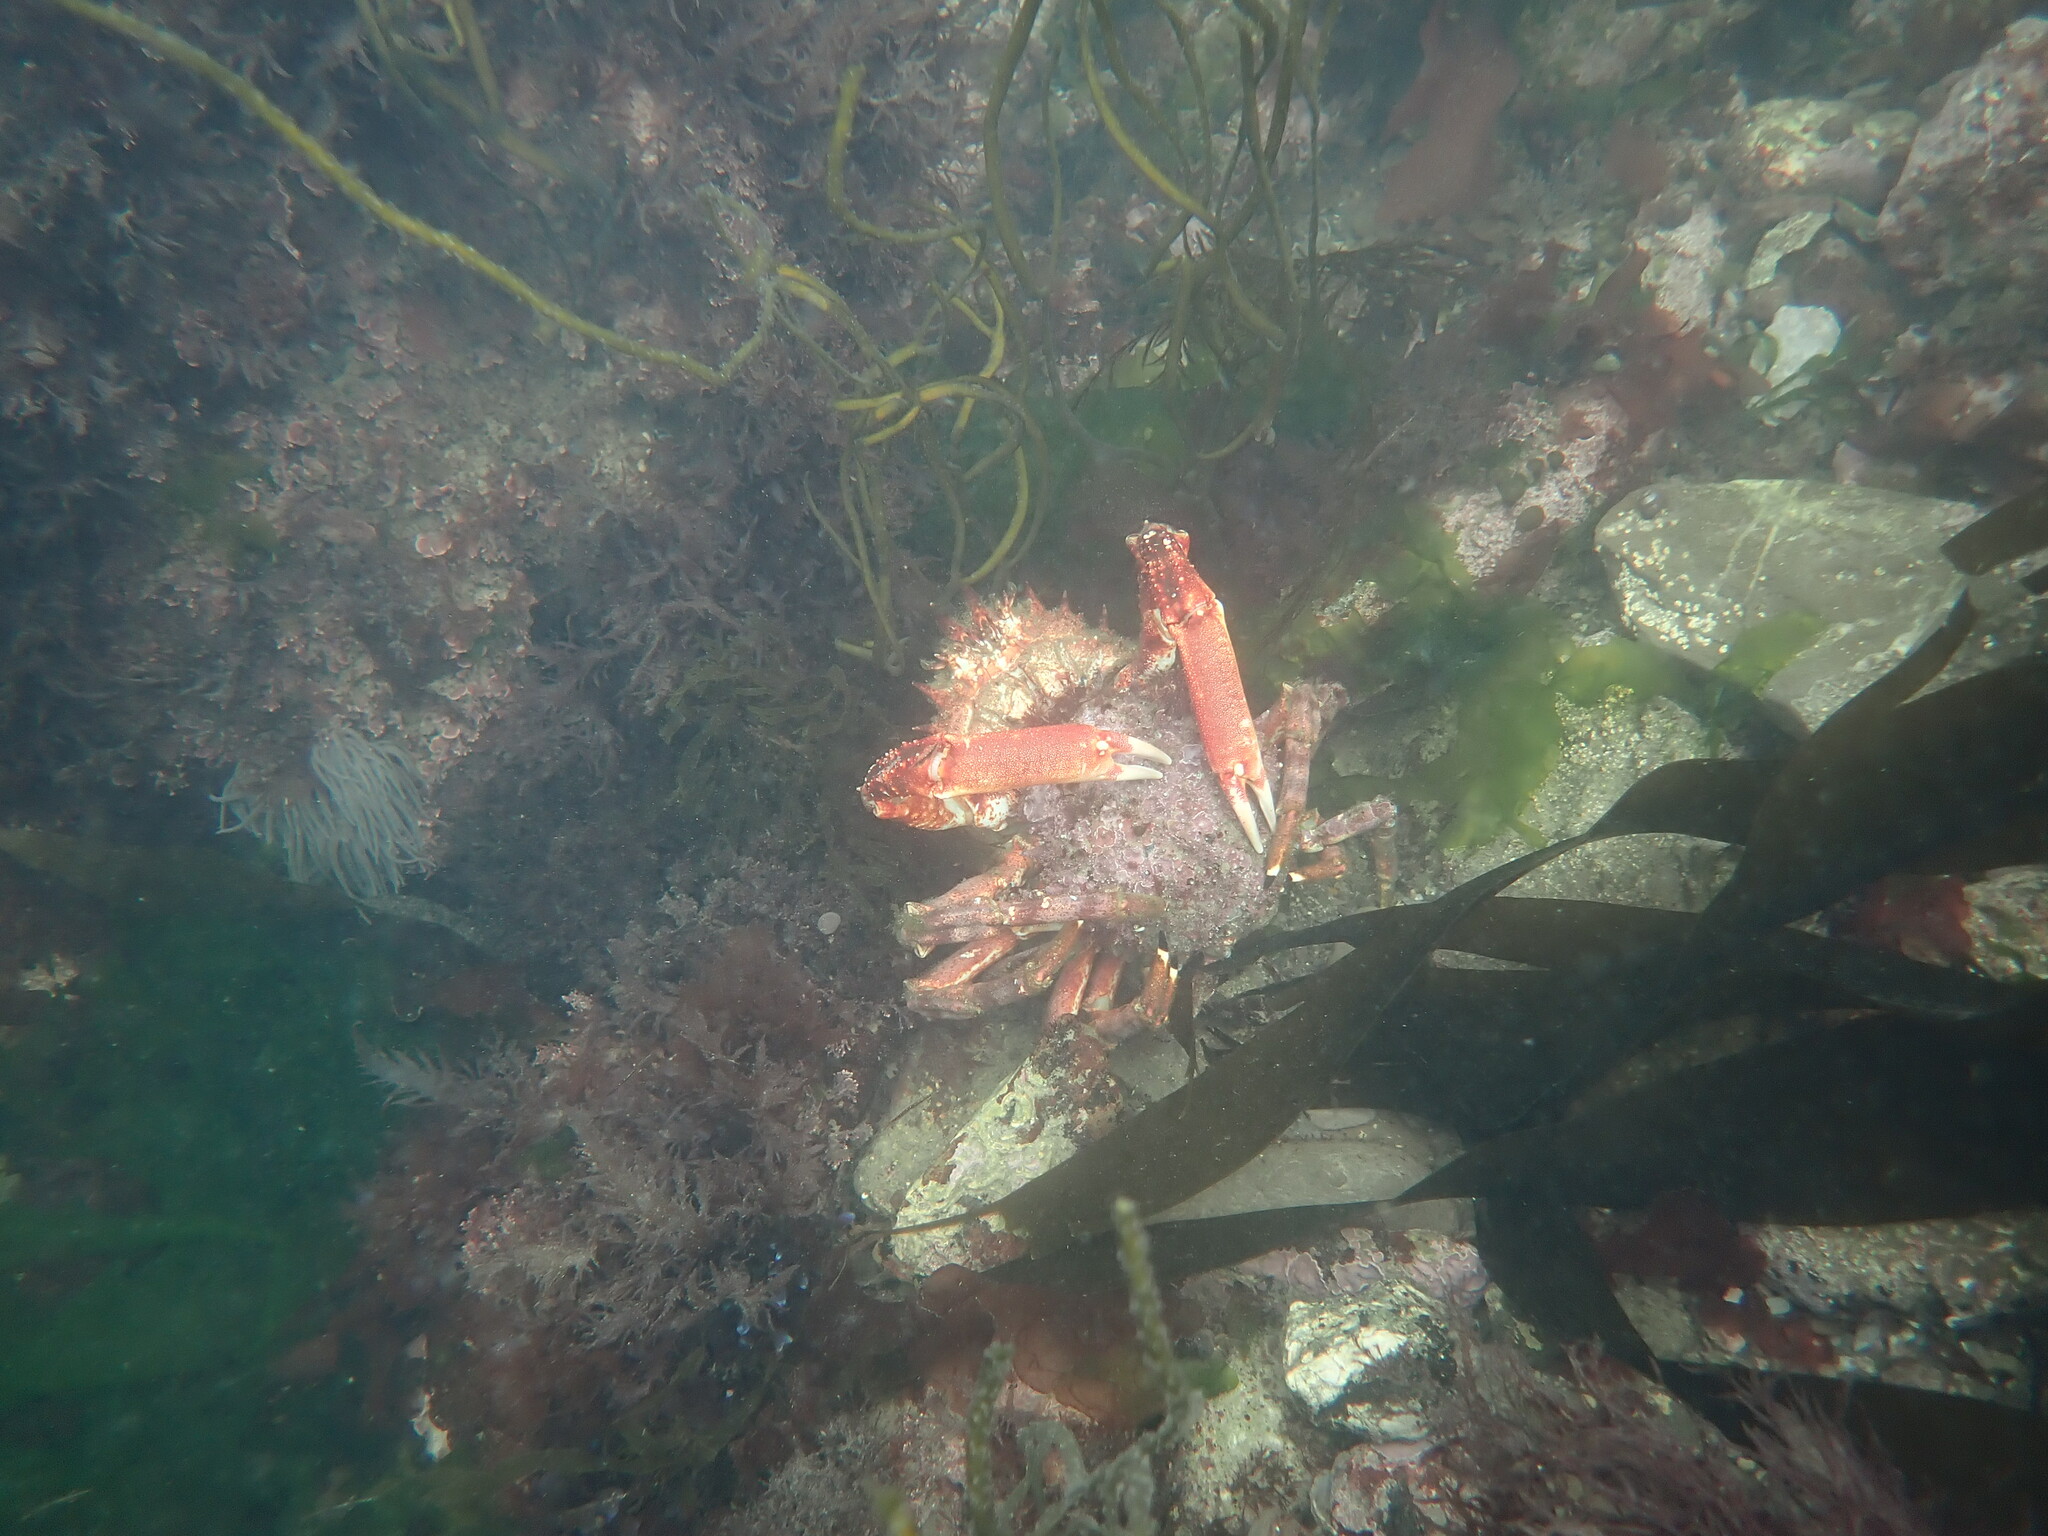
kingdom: Animalia
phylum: Arthropoda
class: Malacostraca
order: Decapoda
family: Majidae
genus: Maja
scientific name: Maja brachydactyla
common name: Common spider crab
